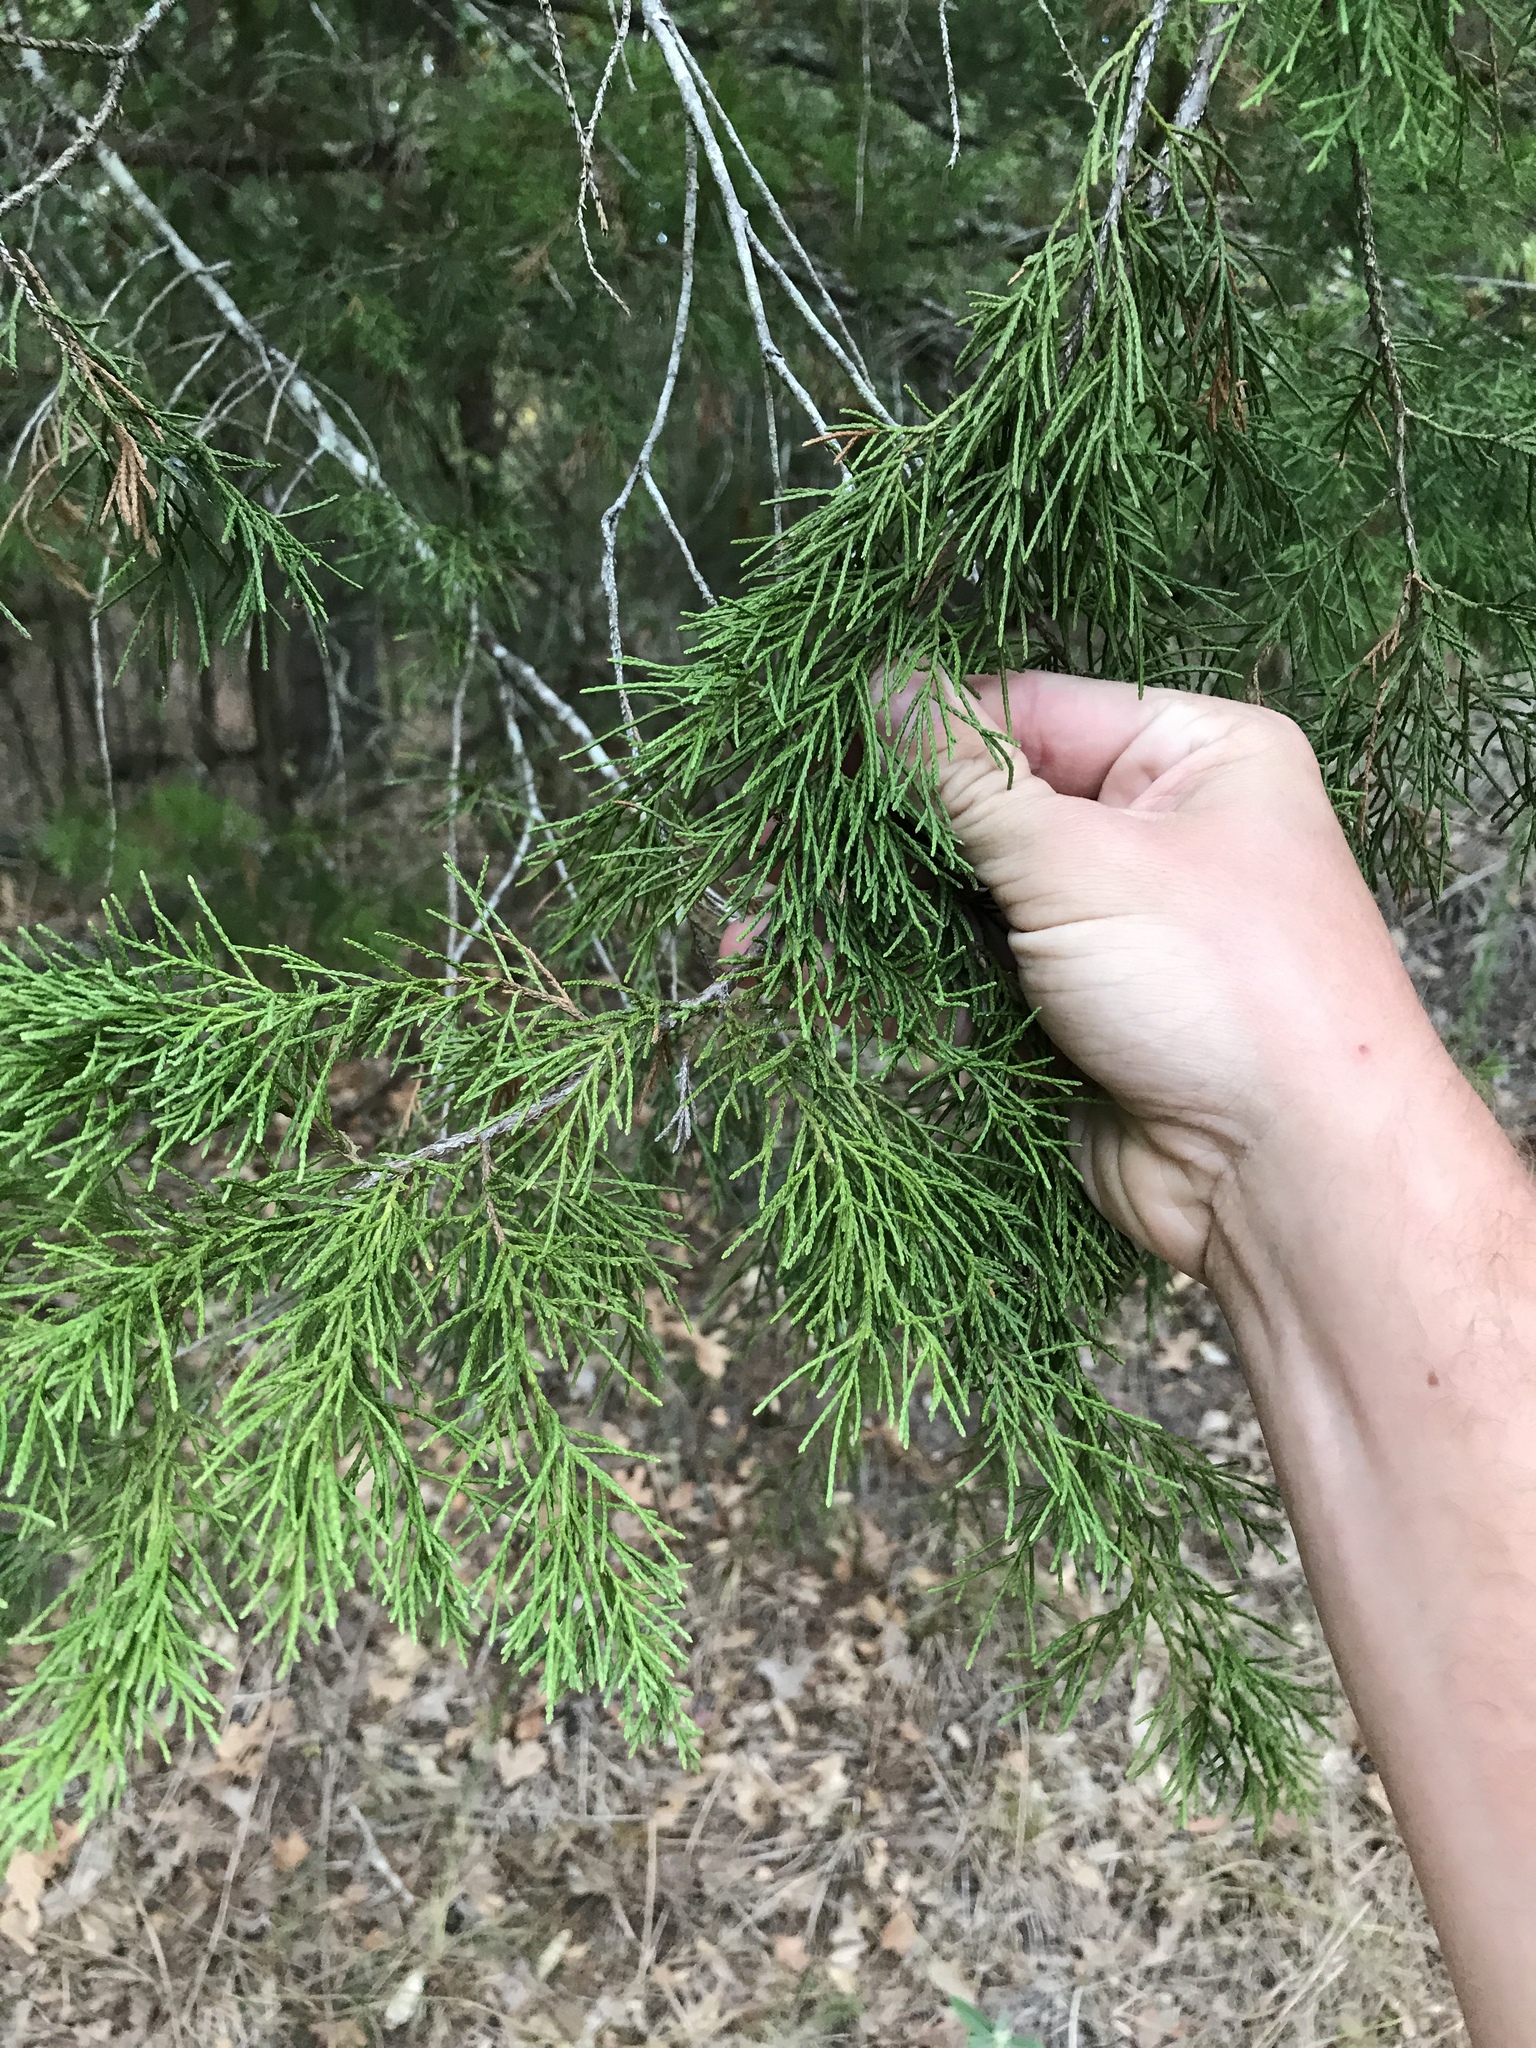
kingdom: Plantae
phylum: Tracheophyta
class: Pinopsida
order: Pinales
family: Cupressaceae
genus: Juniperus
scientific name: Juniperus virginiana
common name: Red juniper
